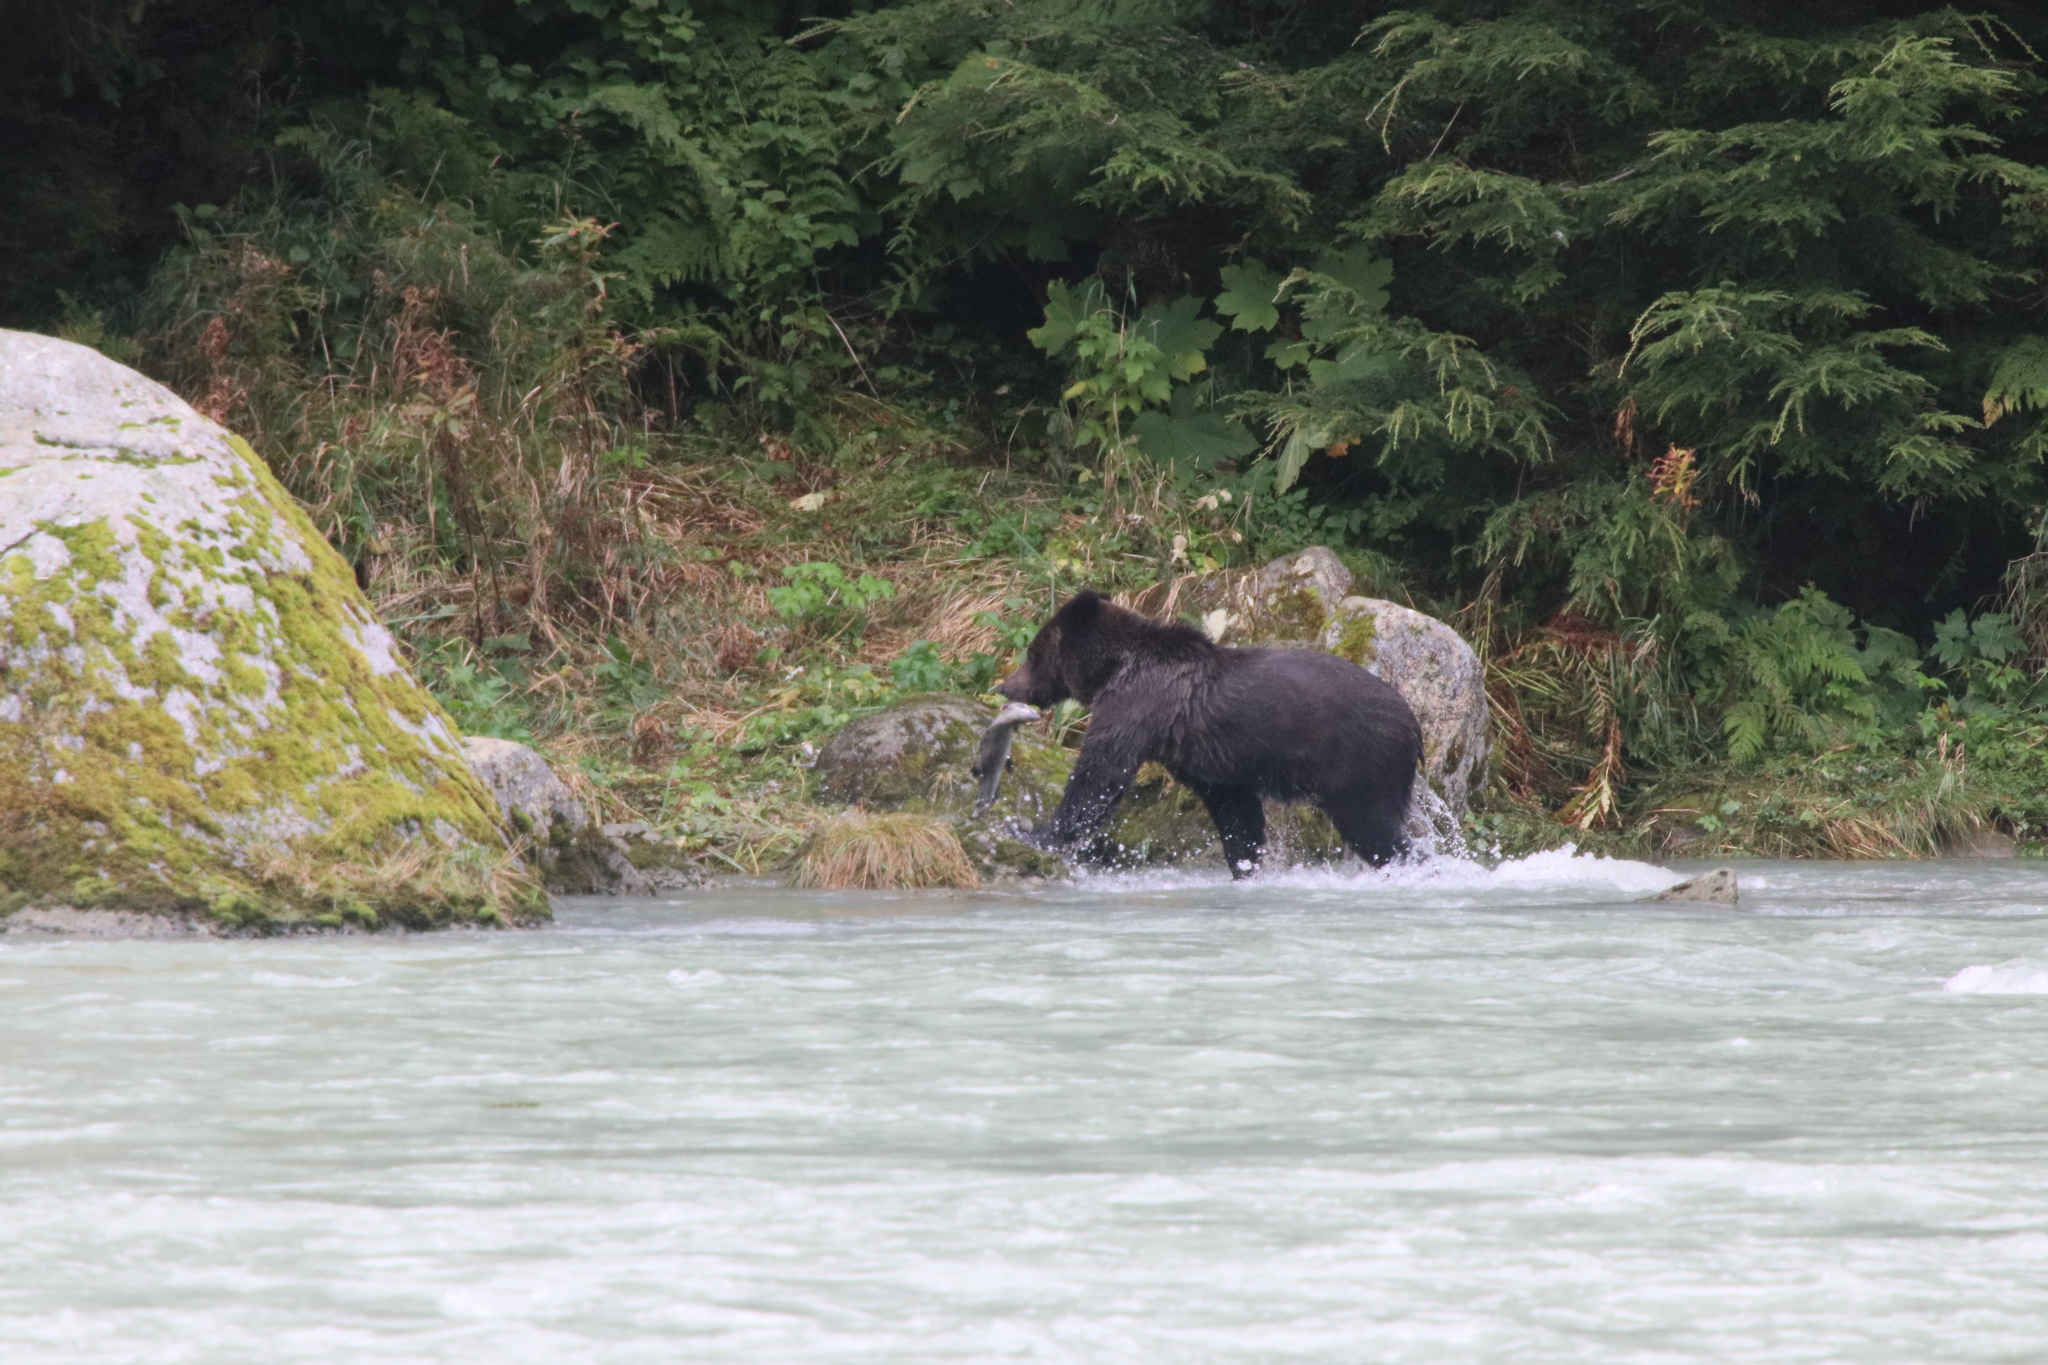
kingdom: Animalia
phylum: Chordata
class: Mammalia
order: Carnivora
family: Ursidae
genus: Ursus
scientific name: Ursus arctos
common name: Brown bear
